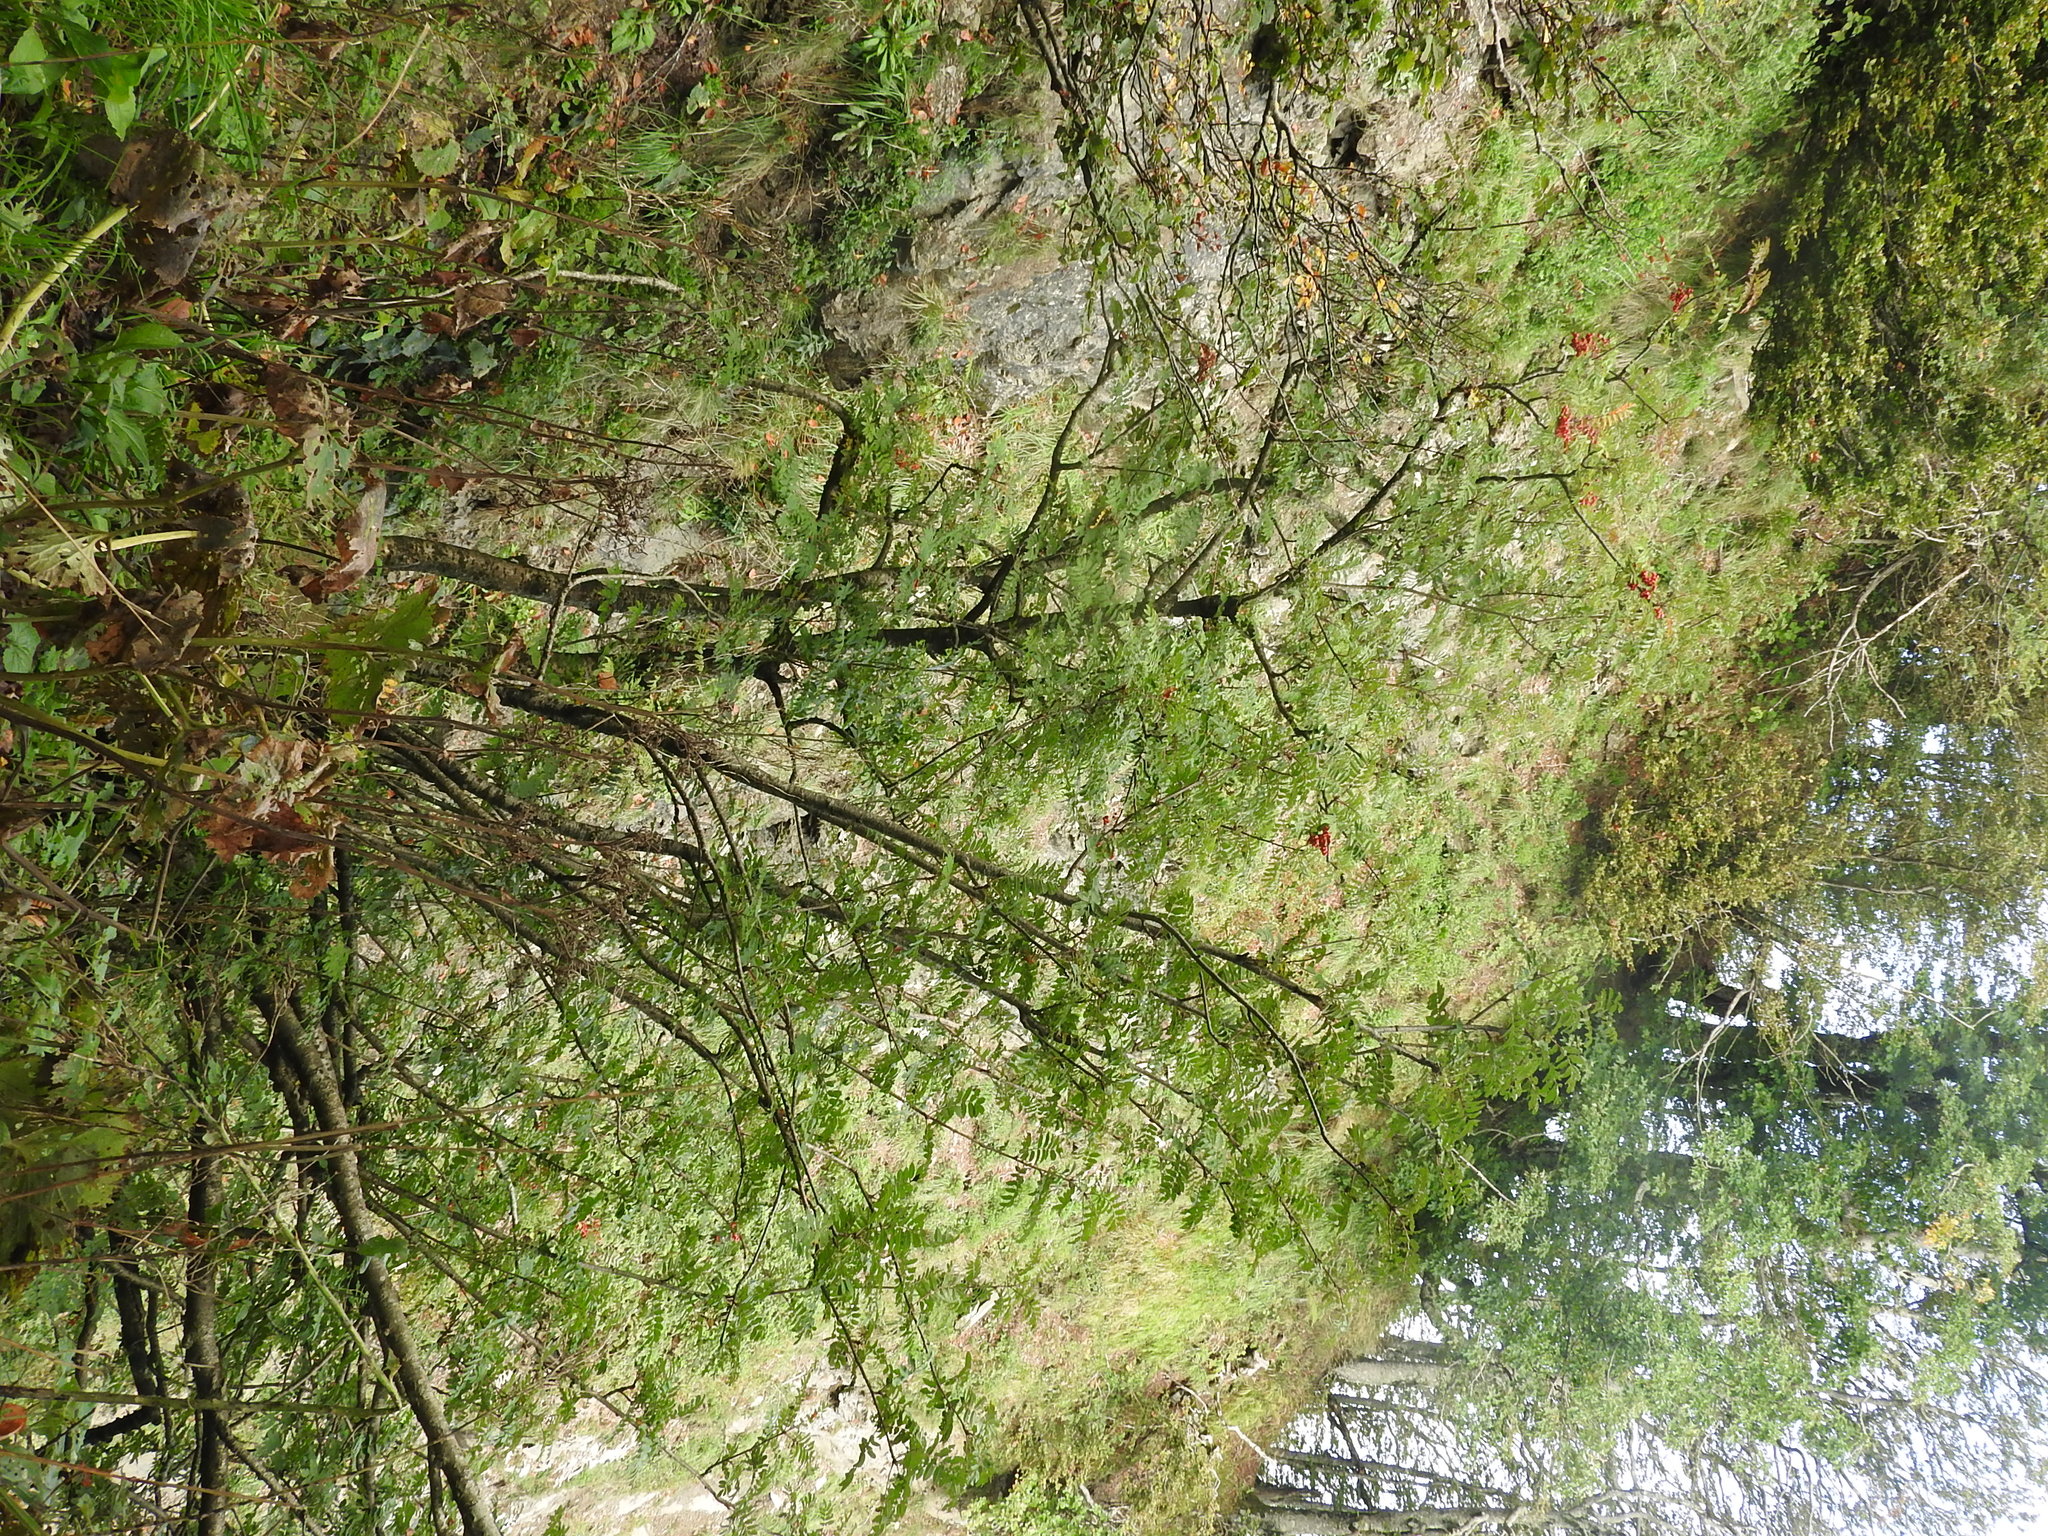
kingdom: Plantae
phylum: Tracheophyta
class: Magnoliopsida
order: Rosales
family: Rosaceae
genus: Sorbus
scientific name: Sorbus aucuparia
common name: Rowan
